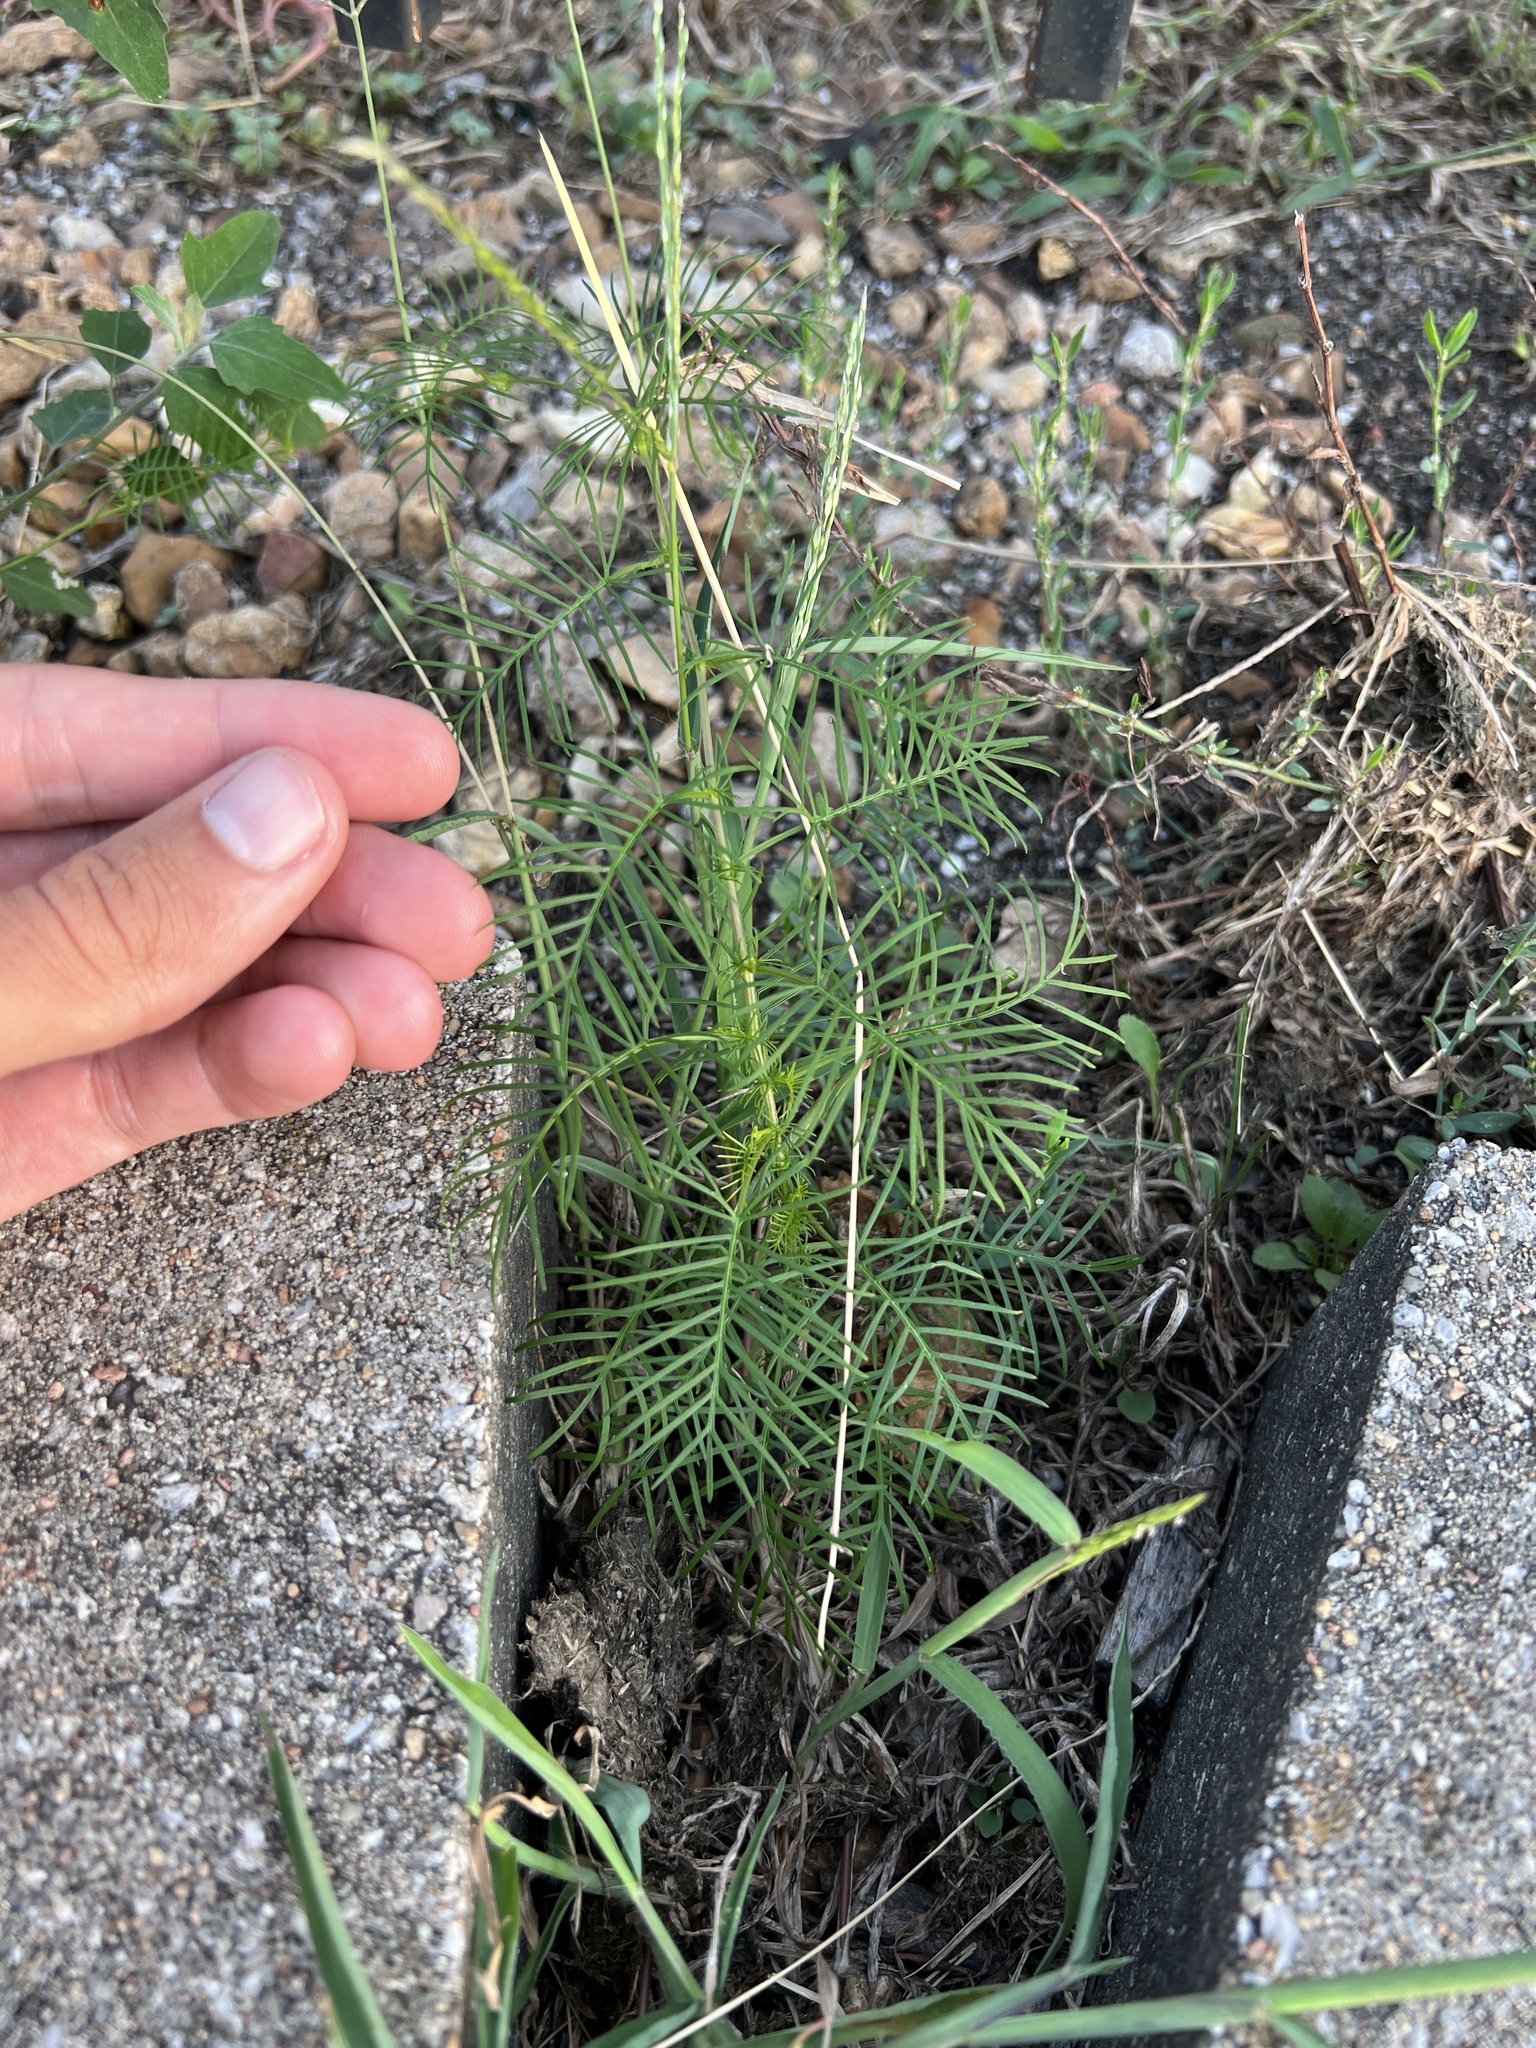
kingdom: Plantae
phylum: Tracheophyta
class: Magnoliopsida
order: Solanales
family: Convolvulaceae
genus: Ipomoea
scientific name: Ipomoea quamoclit
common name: Cypress vine
